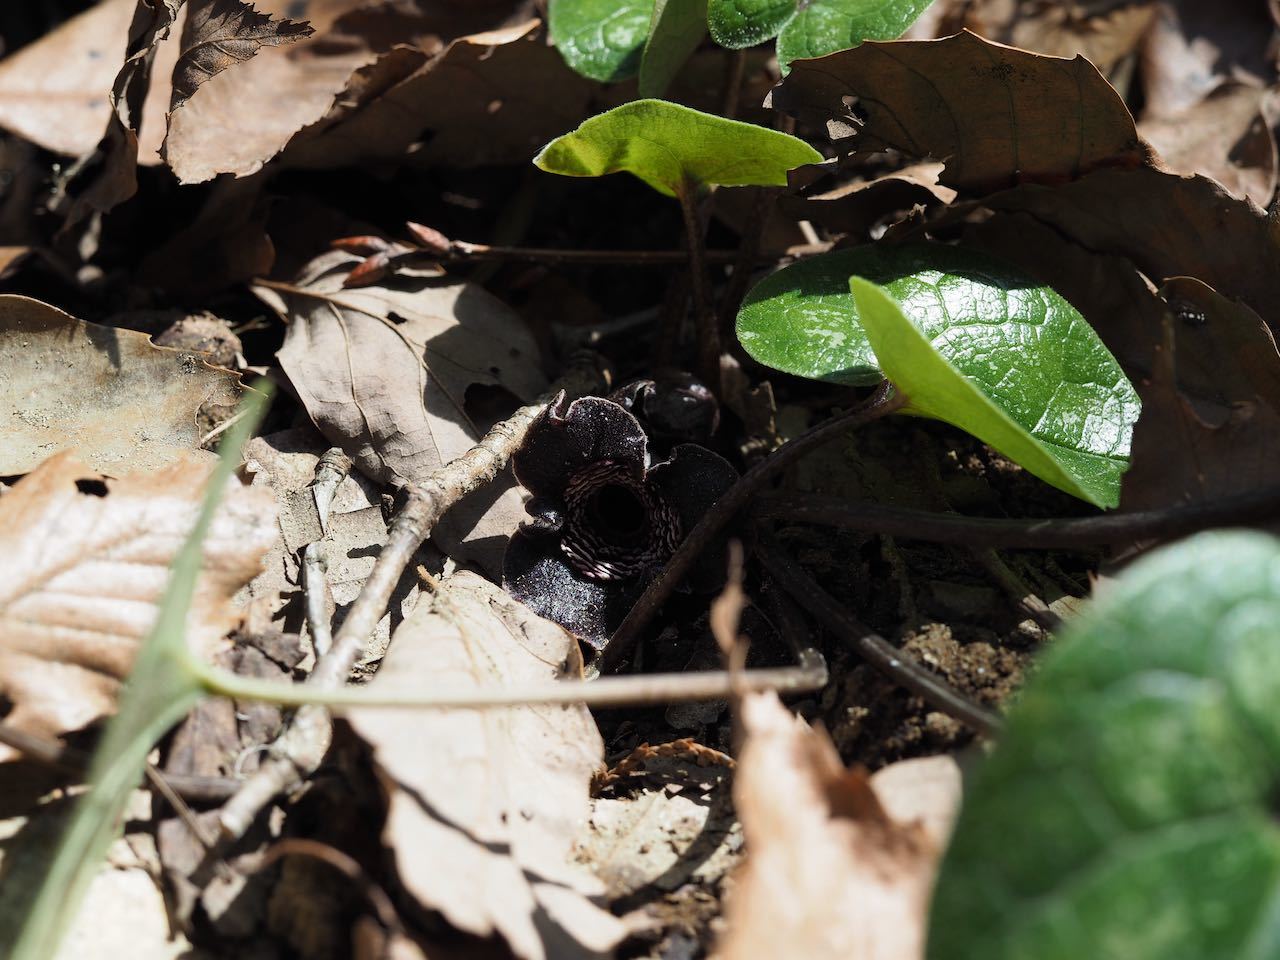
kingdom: Plantae
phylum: Tracheophyta
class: Magnoliopsida
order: Piperales
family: Aristolochiaceae
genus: Asarum
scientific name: Asarum tamaense
